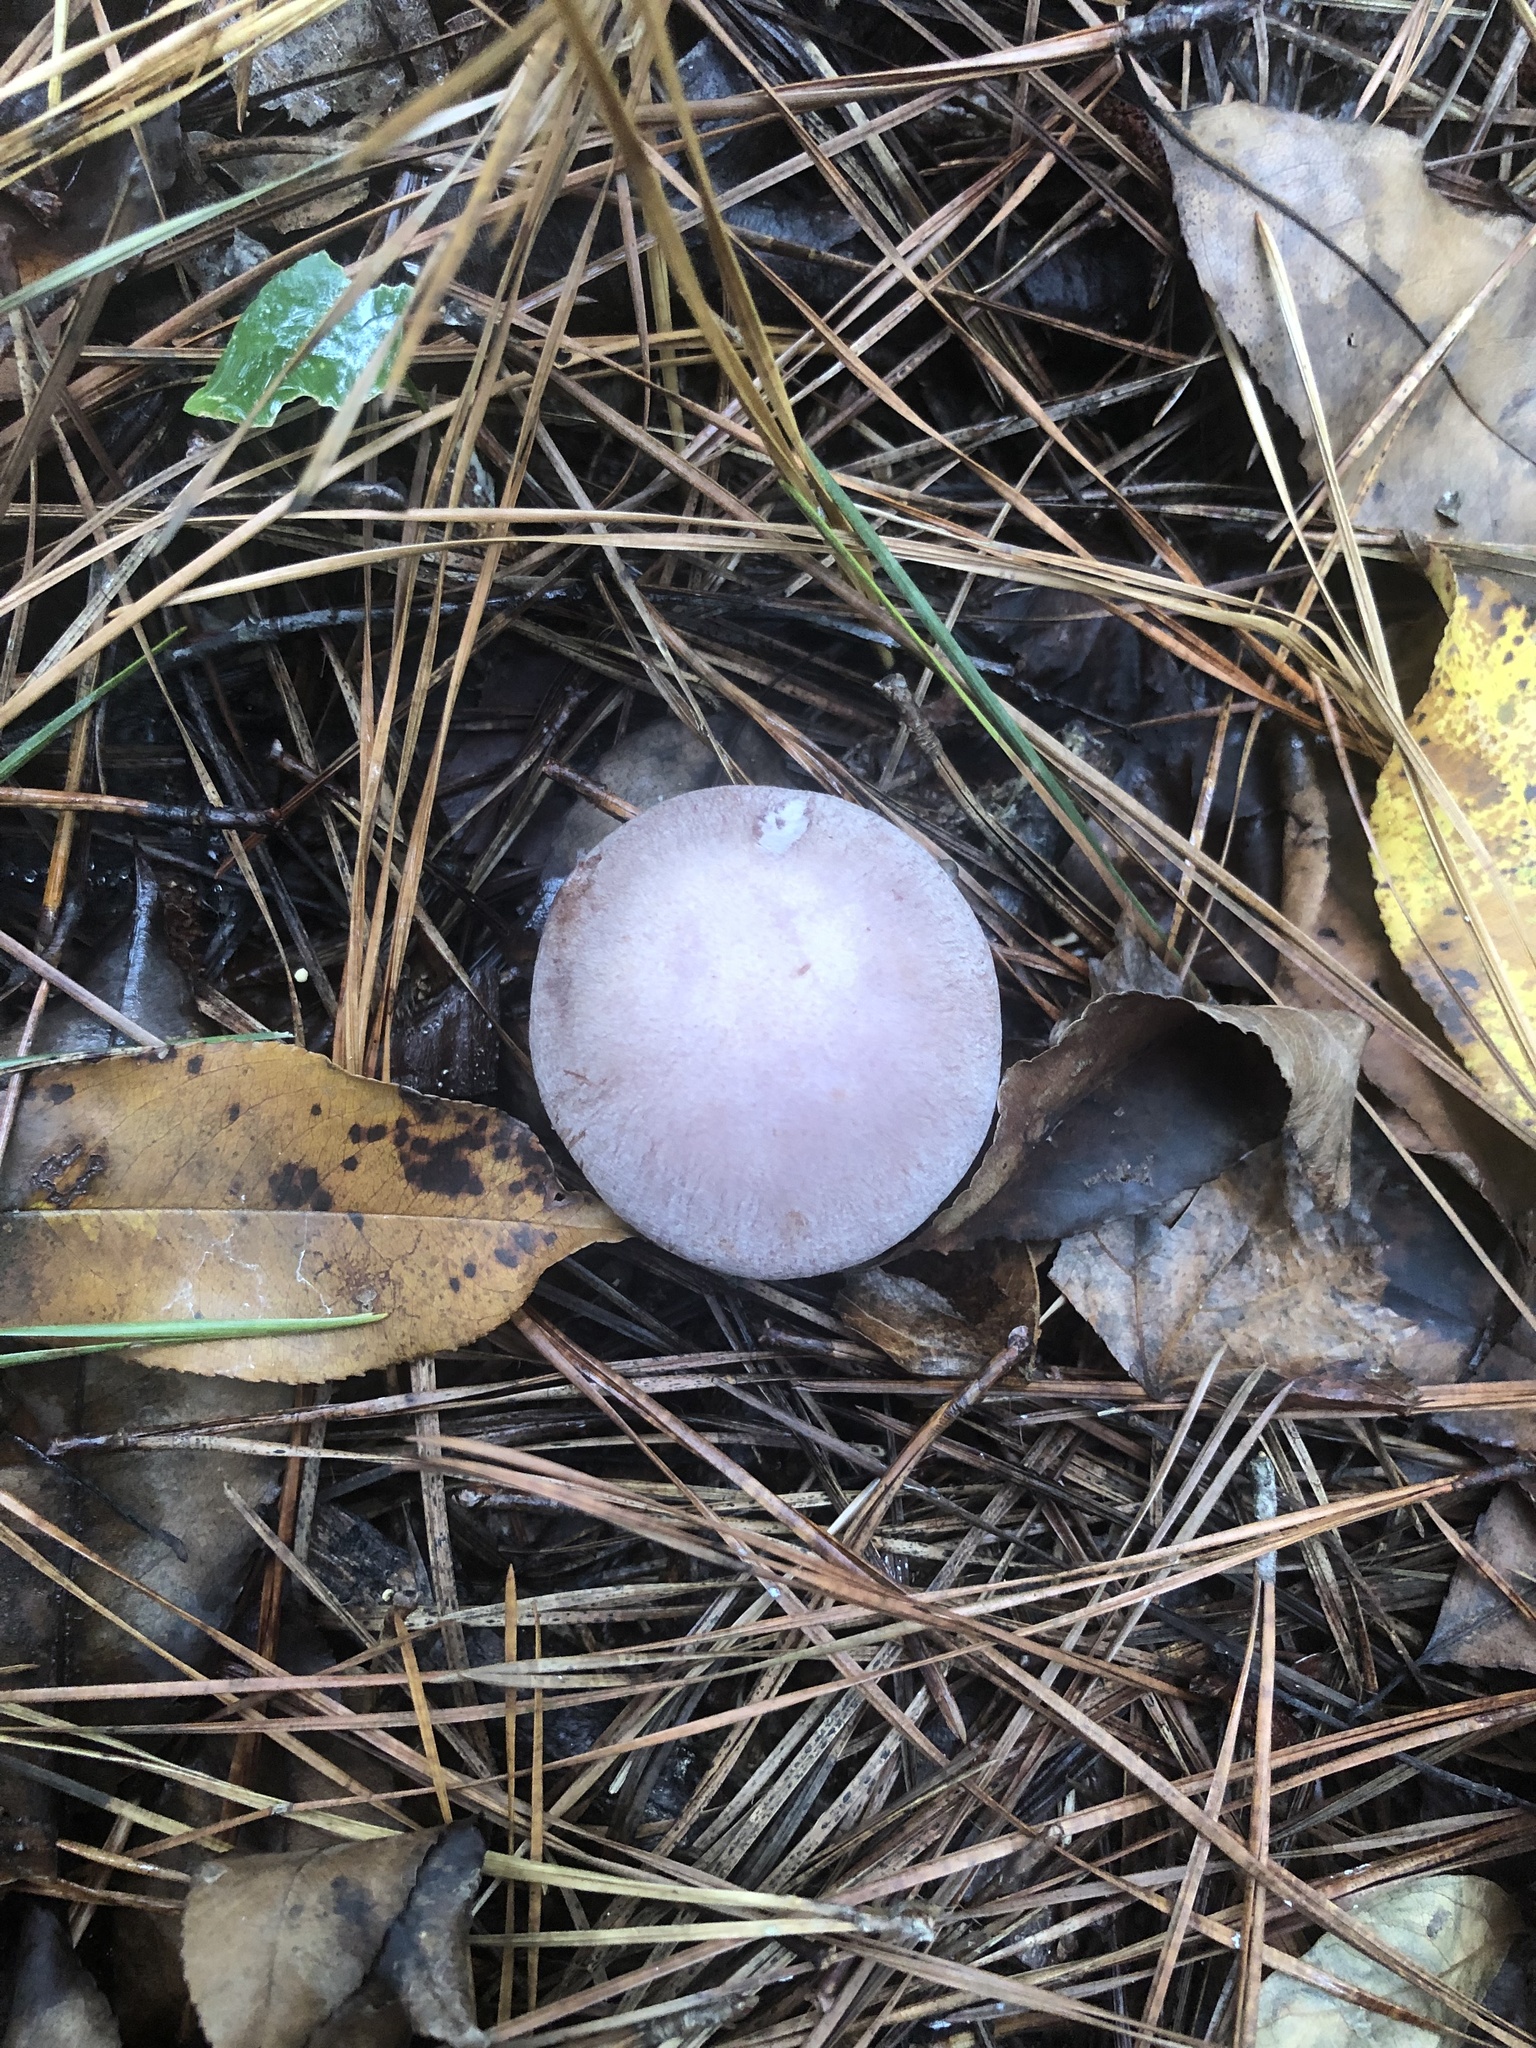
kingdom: Fungi
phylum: Basidiomycota
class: Agaricomycetes
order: Agaricales
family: Tricholomataceae
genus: Collybia
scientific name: Collybia
